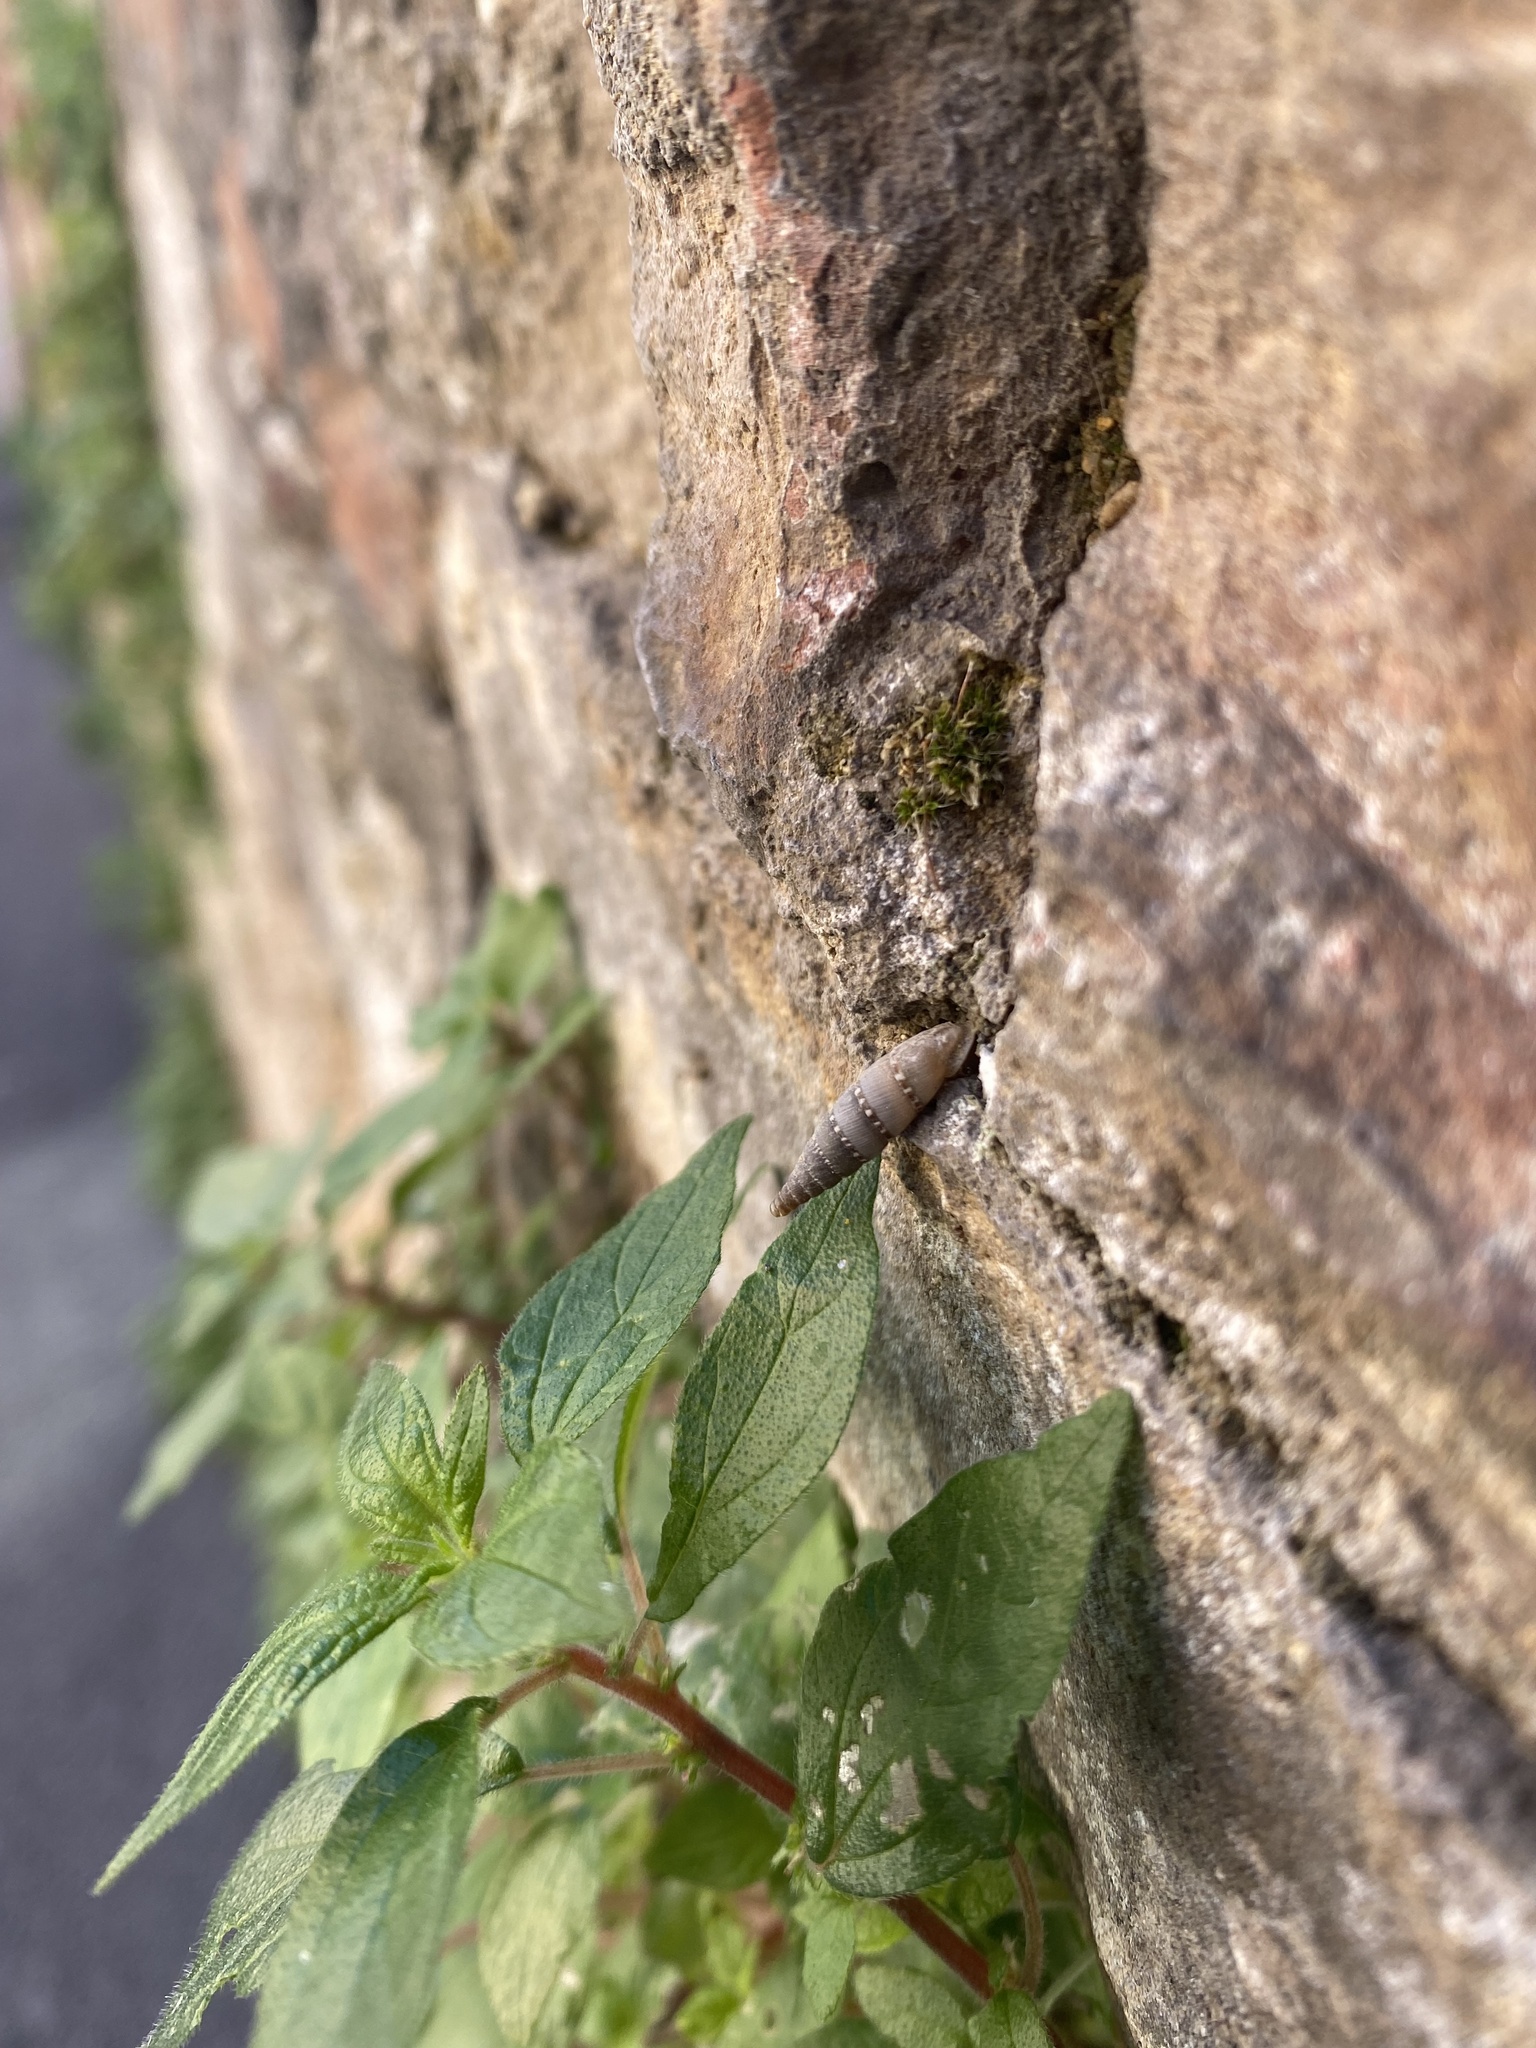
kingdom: Animalia
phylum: Mollusca
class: Gastropoda
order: Stylommatophora
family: Clausiliidae
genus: Papillifera
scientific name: Papillifera papillaris
